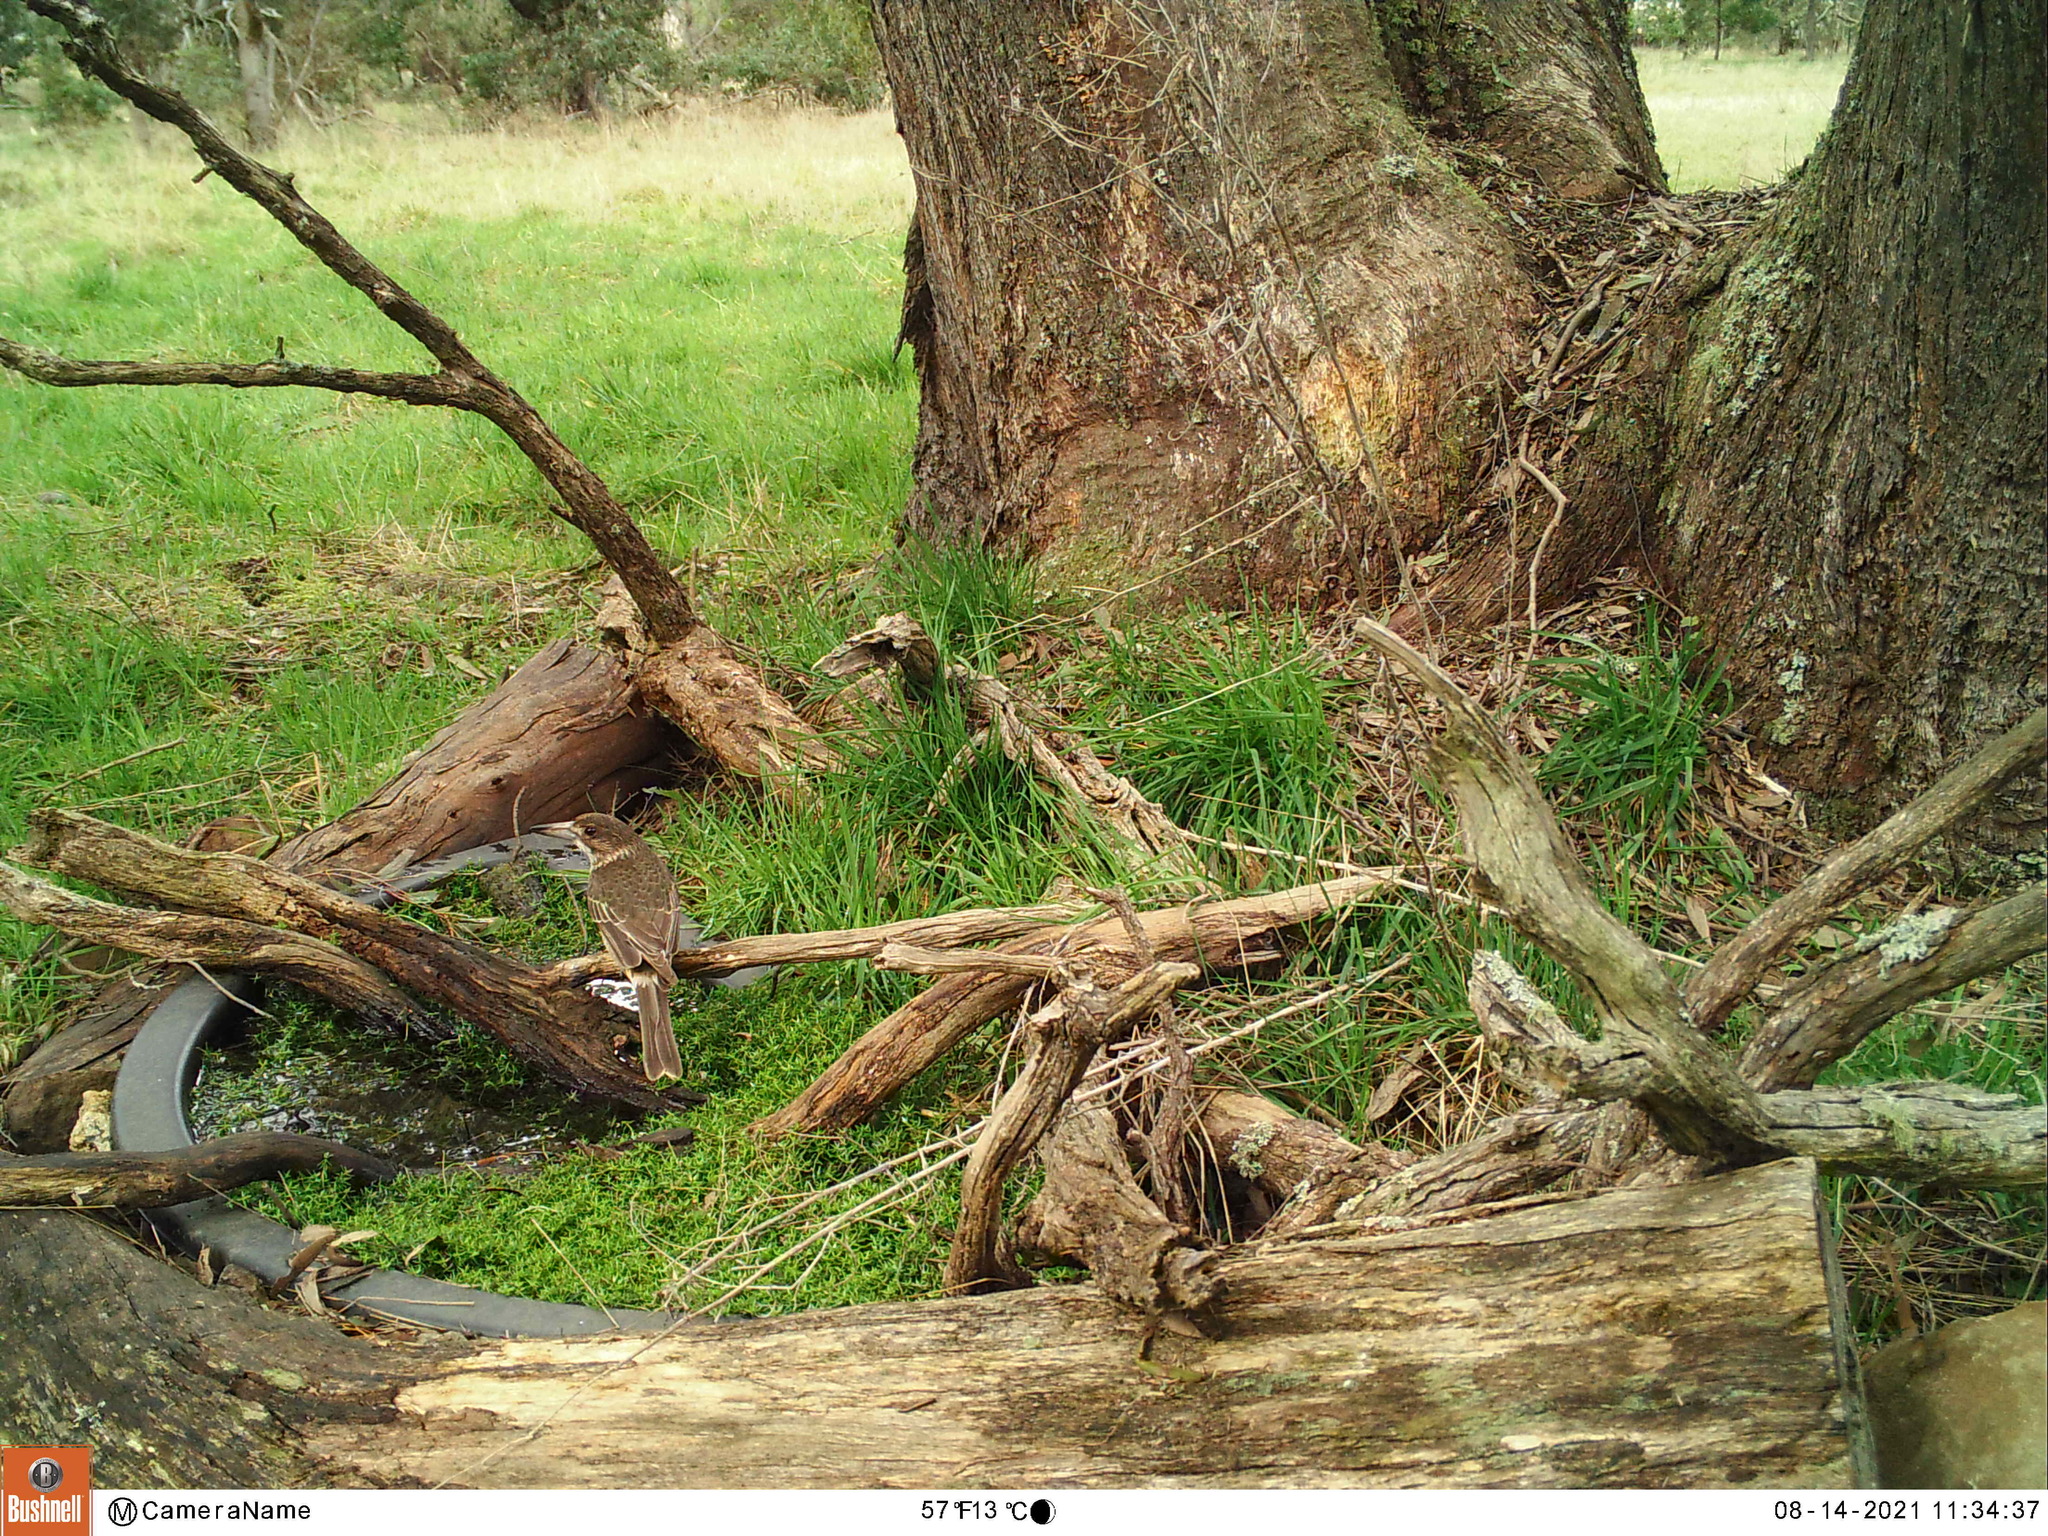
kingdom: Animalia
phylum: Chordata
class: Aves
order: Passeriformes
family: Cracticidae
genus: Cracticus
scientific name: Cracticus torquatus
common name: Grey butcherbird
